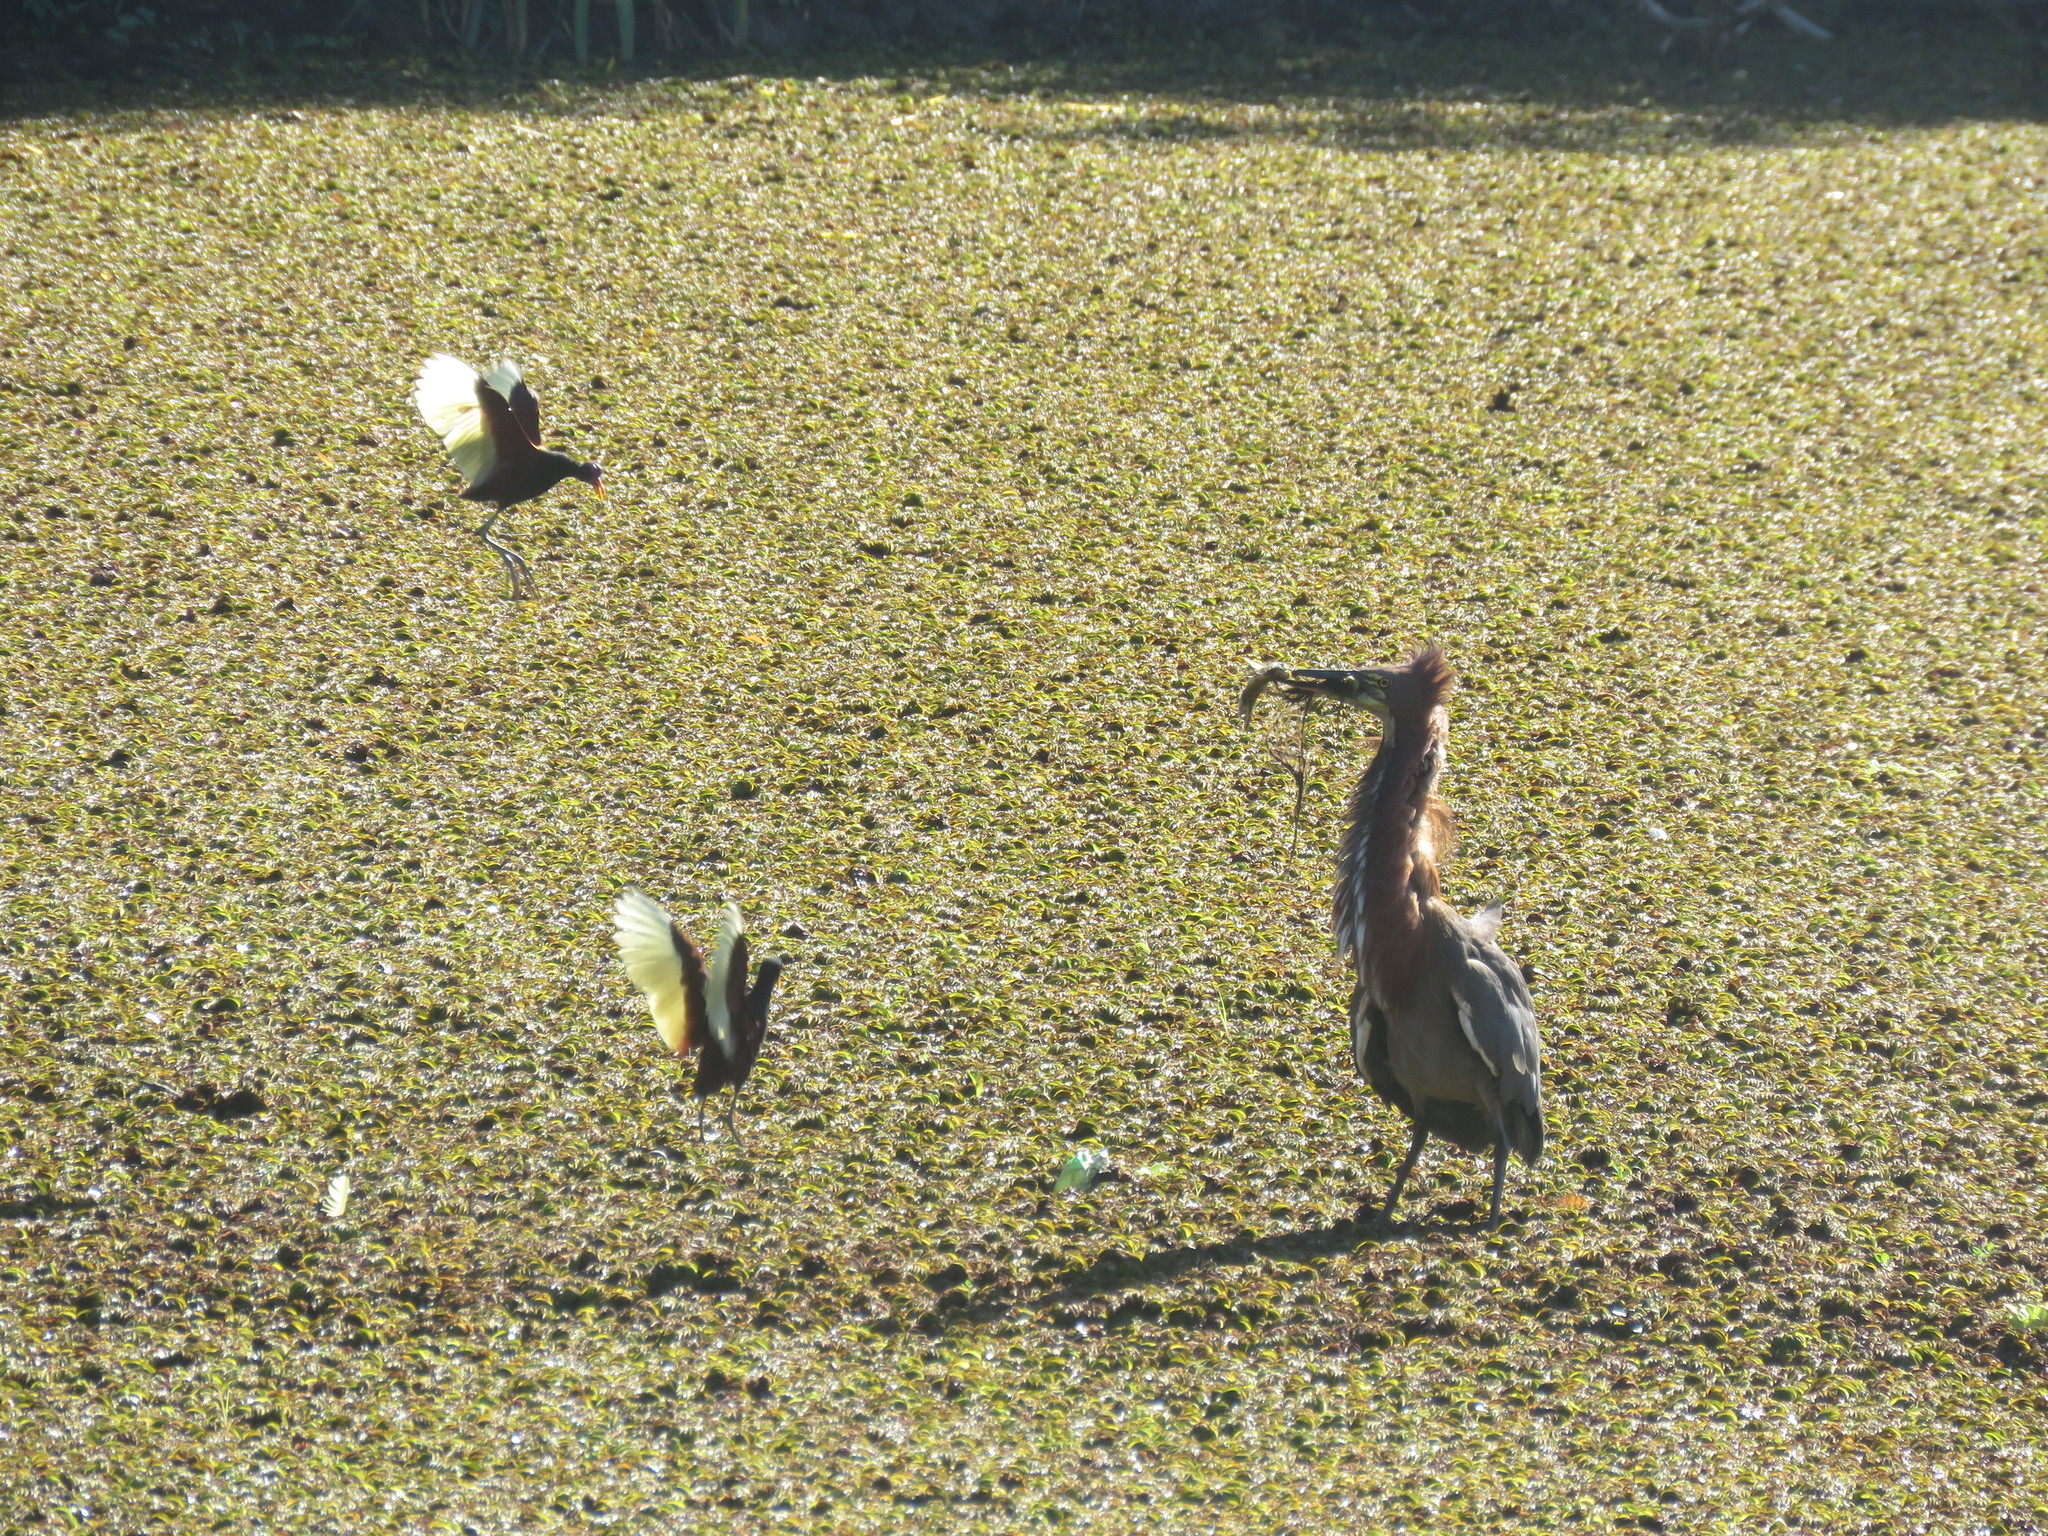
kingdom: Animalia
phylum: Chordata
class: Aves
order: Pelecaniformes
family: Ardeidae
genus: Tigrisoma
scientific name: Tigrisoma lineatum
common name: Rufescent tiger-heron
